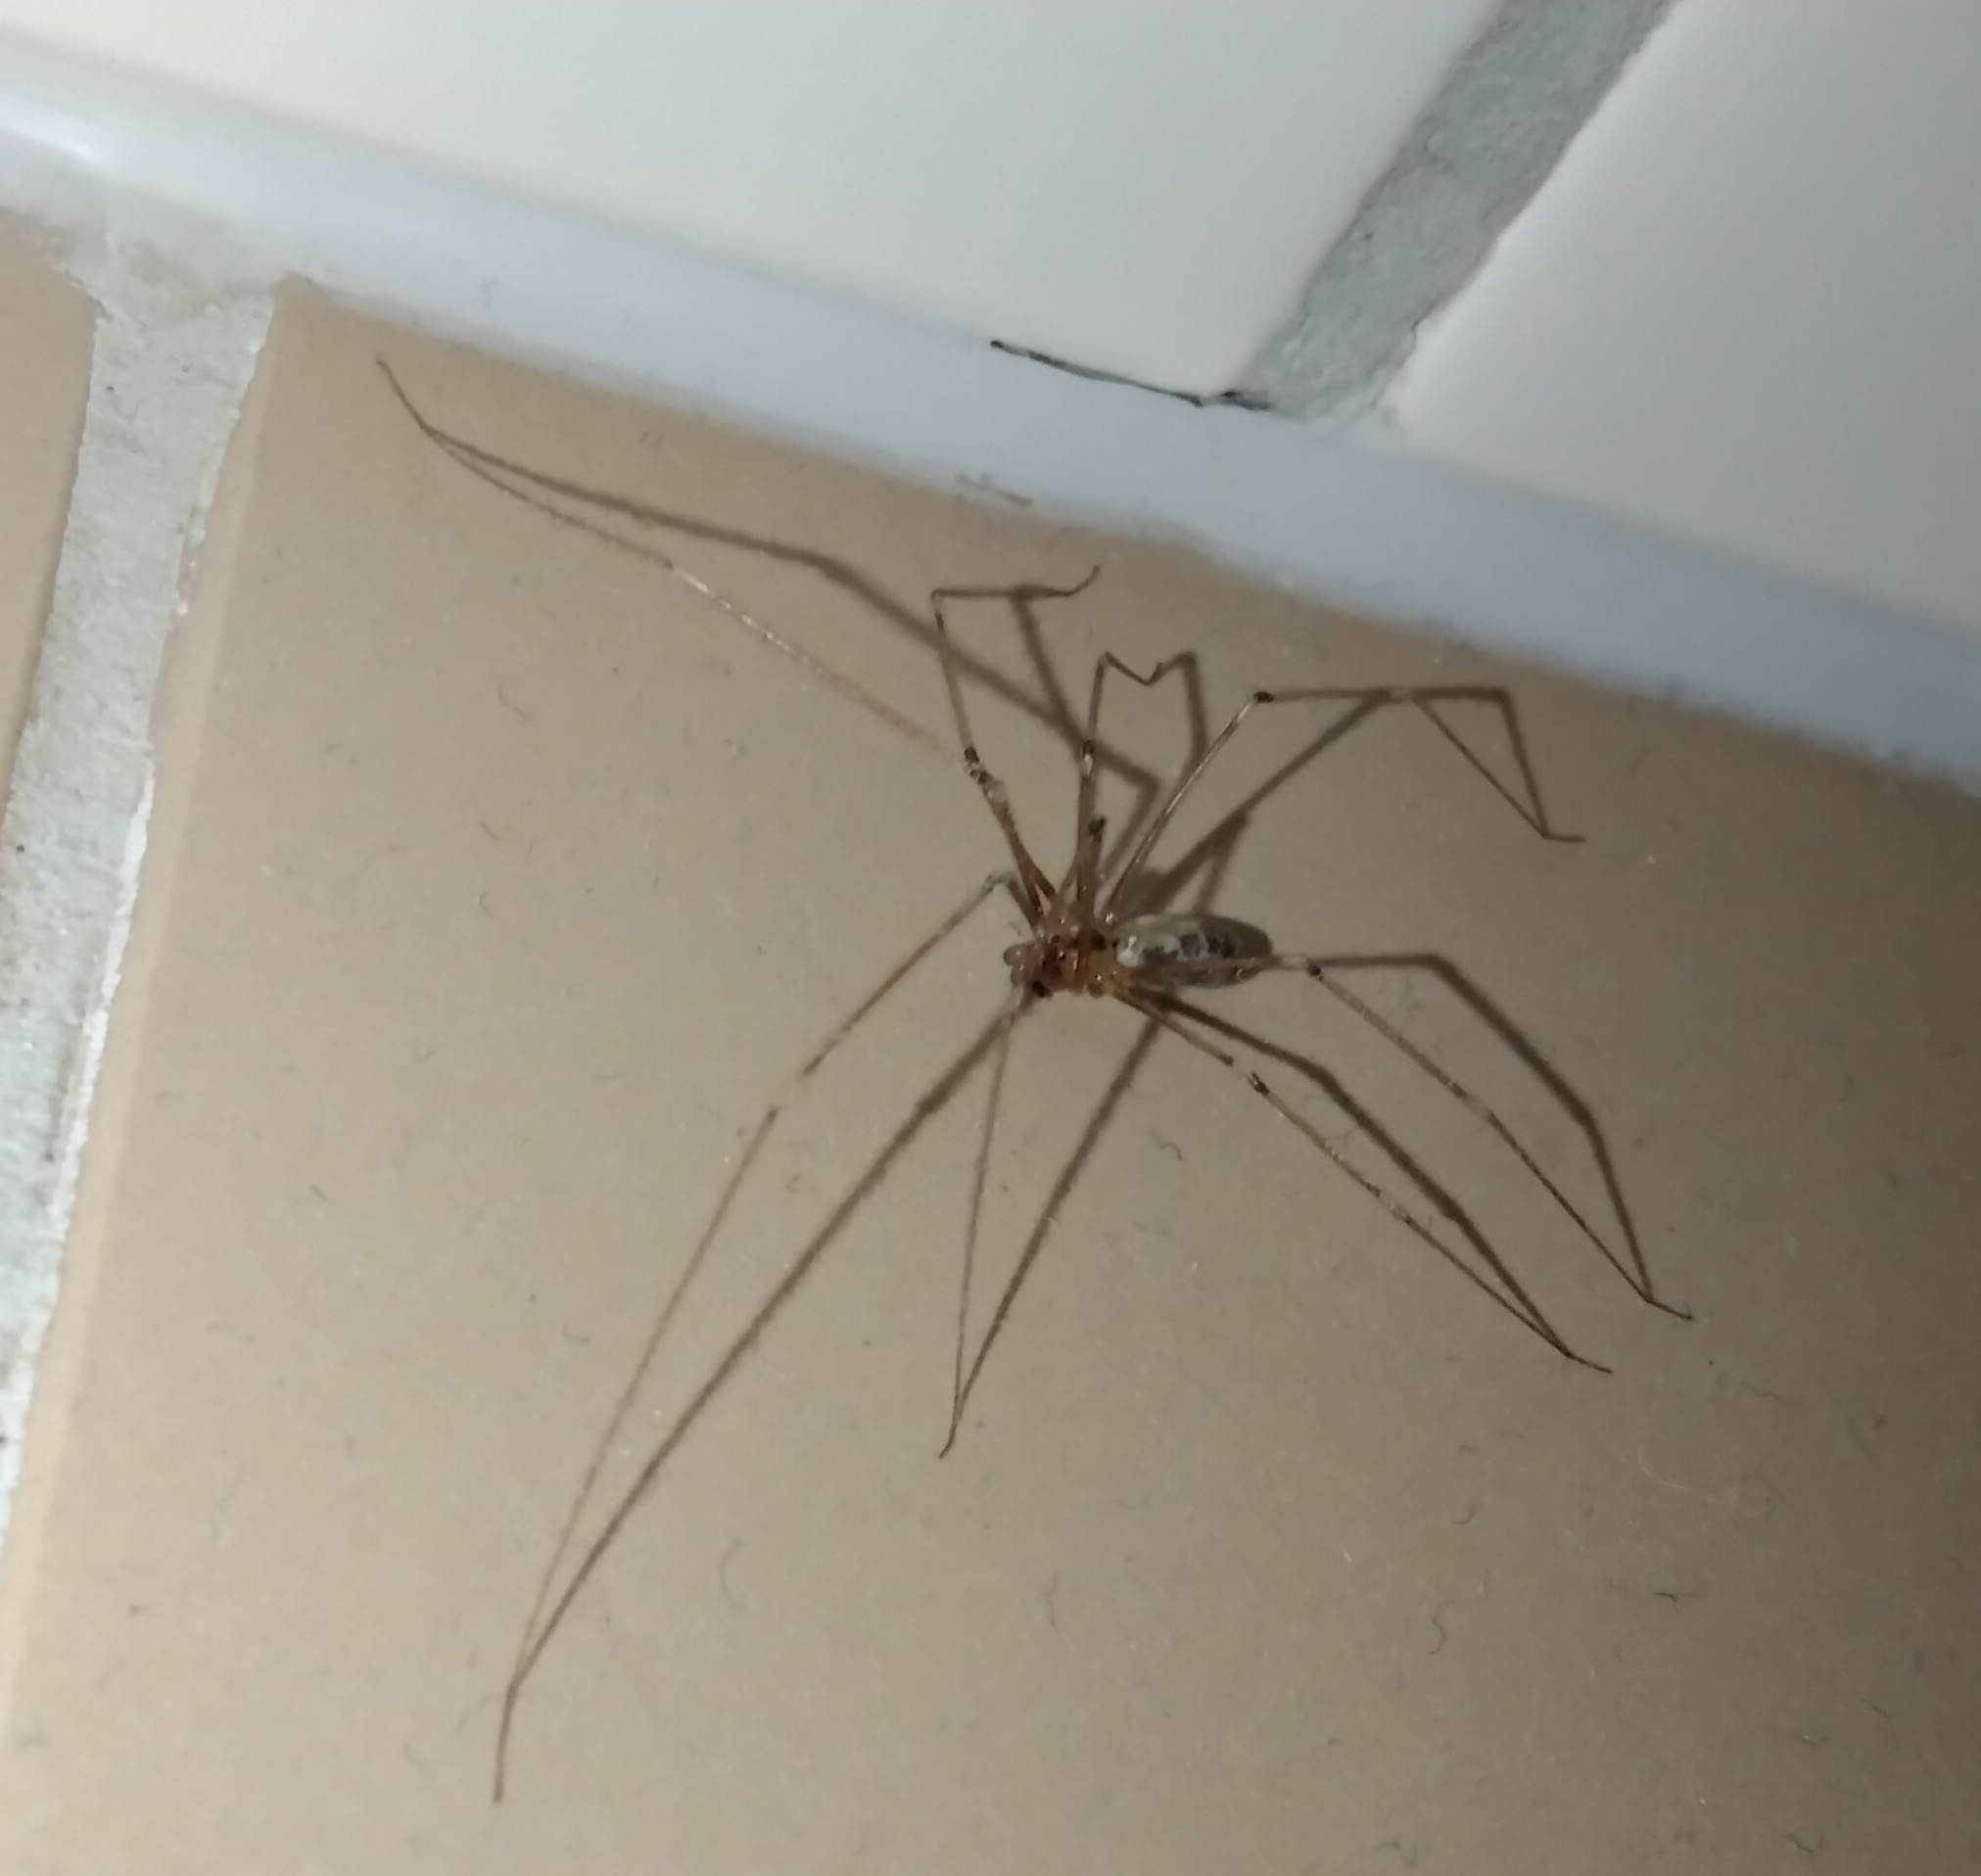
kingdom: Animalia
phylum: Arthropoda
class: Arachnida
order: Araneae
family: Pholcidae
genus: Pholcus
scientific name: Pholcus phalangioides
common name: Longbodied cellar spider
